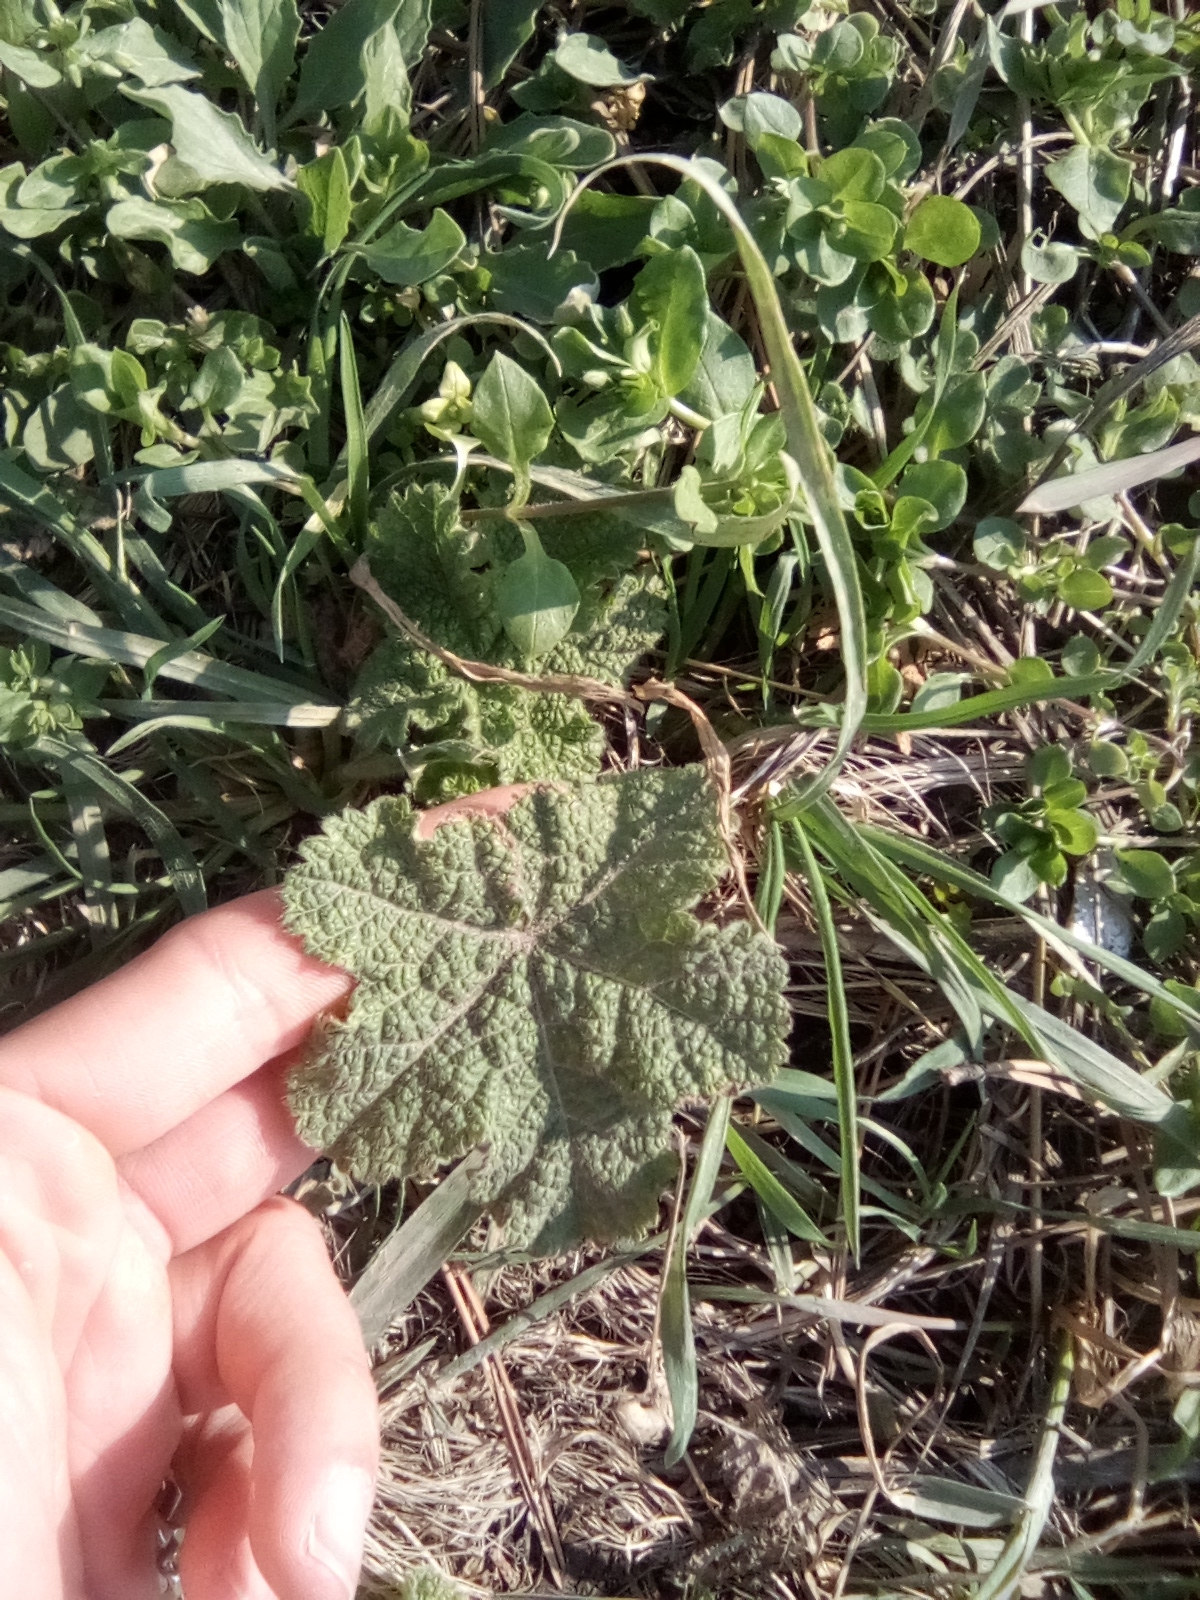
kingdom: Plantae
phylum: Tracheophyta
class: Magnoliopsida
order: Malvales
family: Malvaceae
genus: Alcea
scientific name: Alcea rugosa
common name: Russian hollyhock
